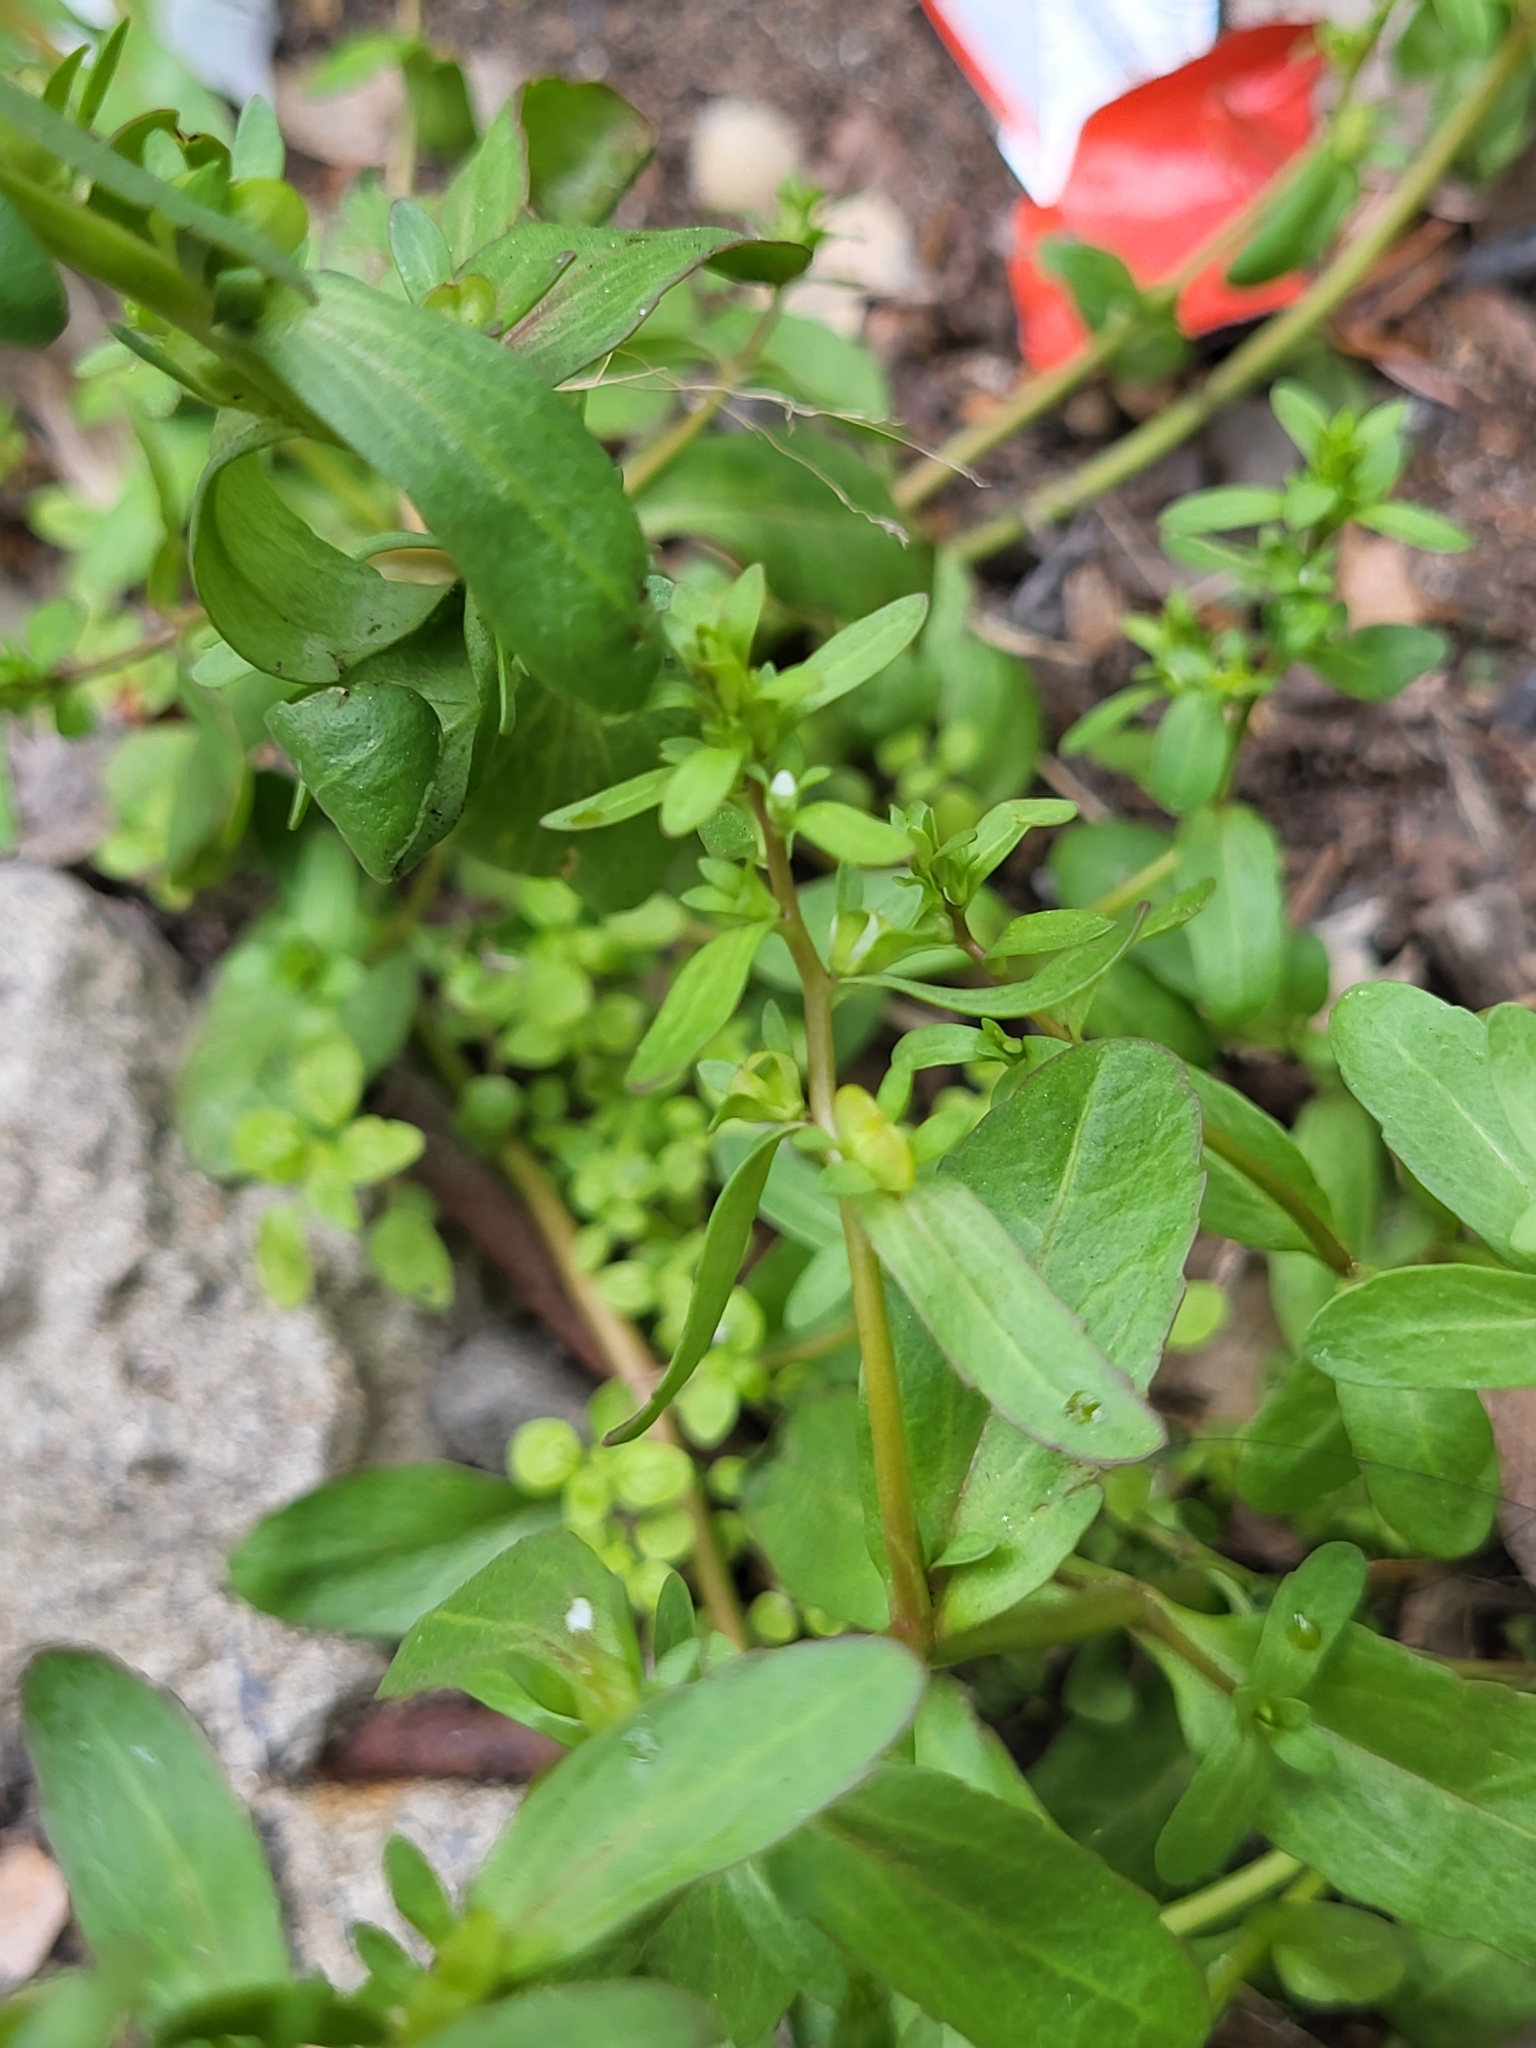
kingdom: Plantae
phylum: Tracheophyta
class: Magnoliopsida
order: Lamiales
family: Plantaginaceae
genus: Veronica
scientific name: Veronica peregrina
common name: Neckweed
